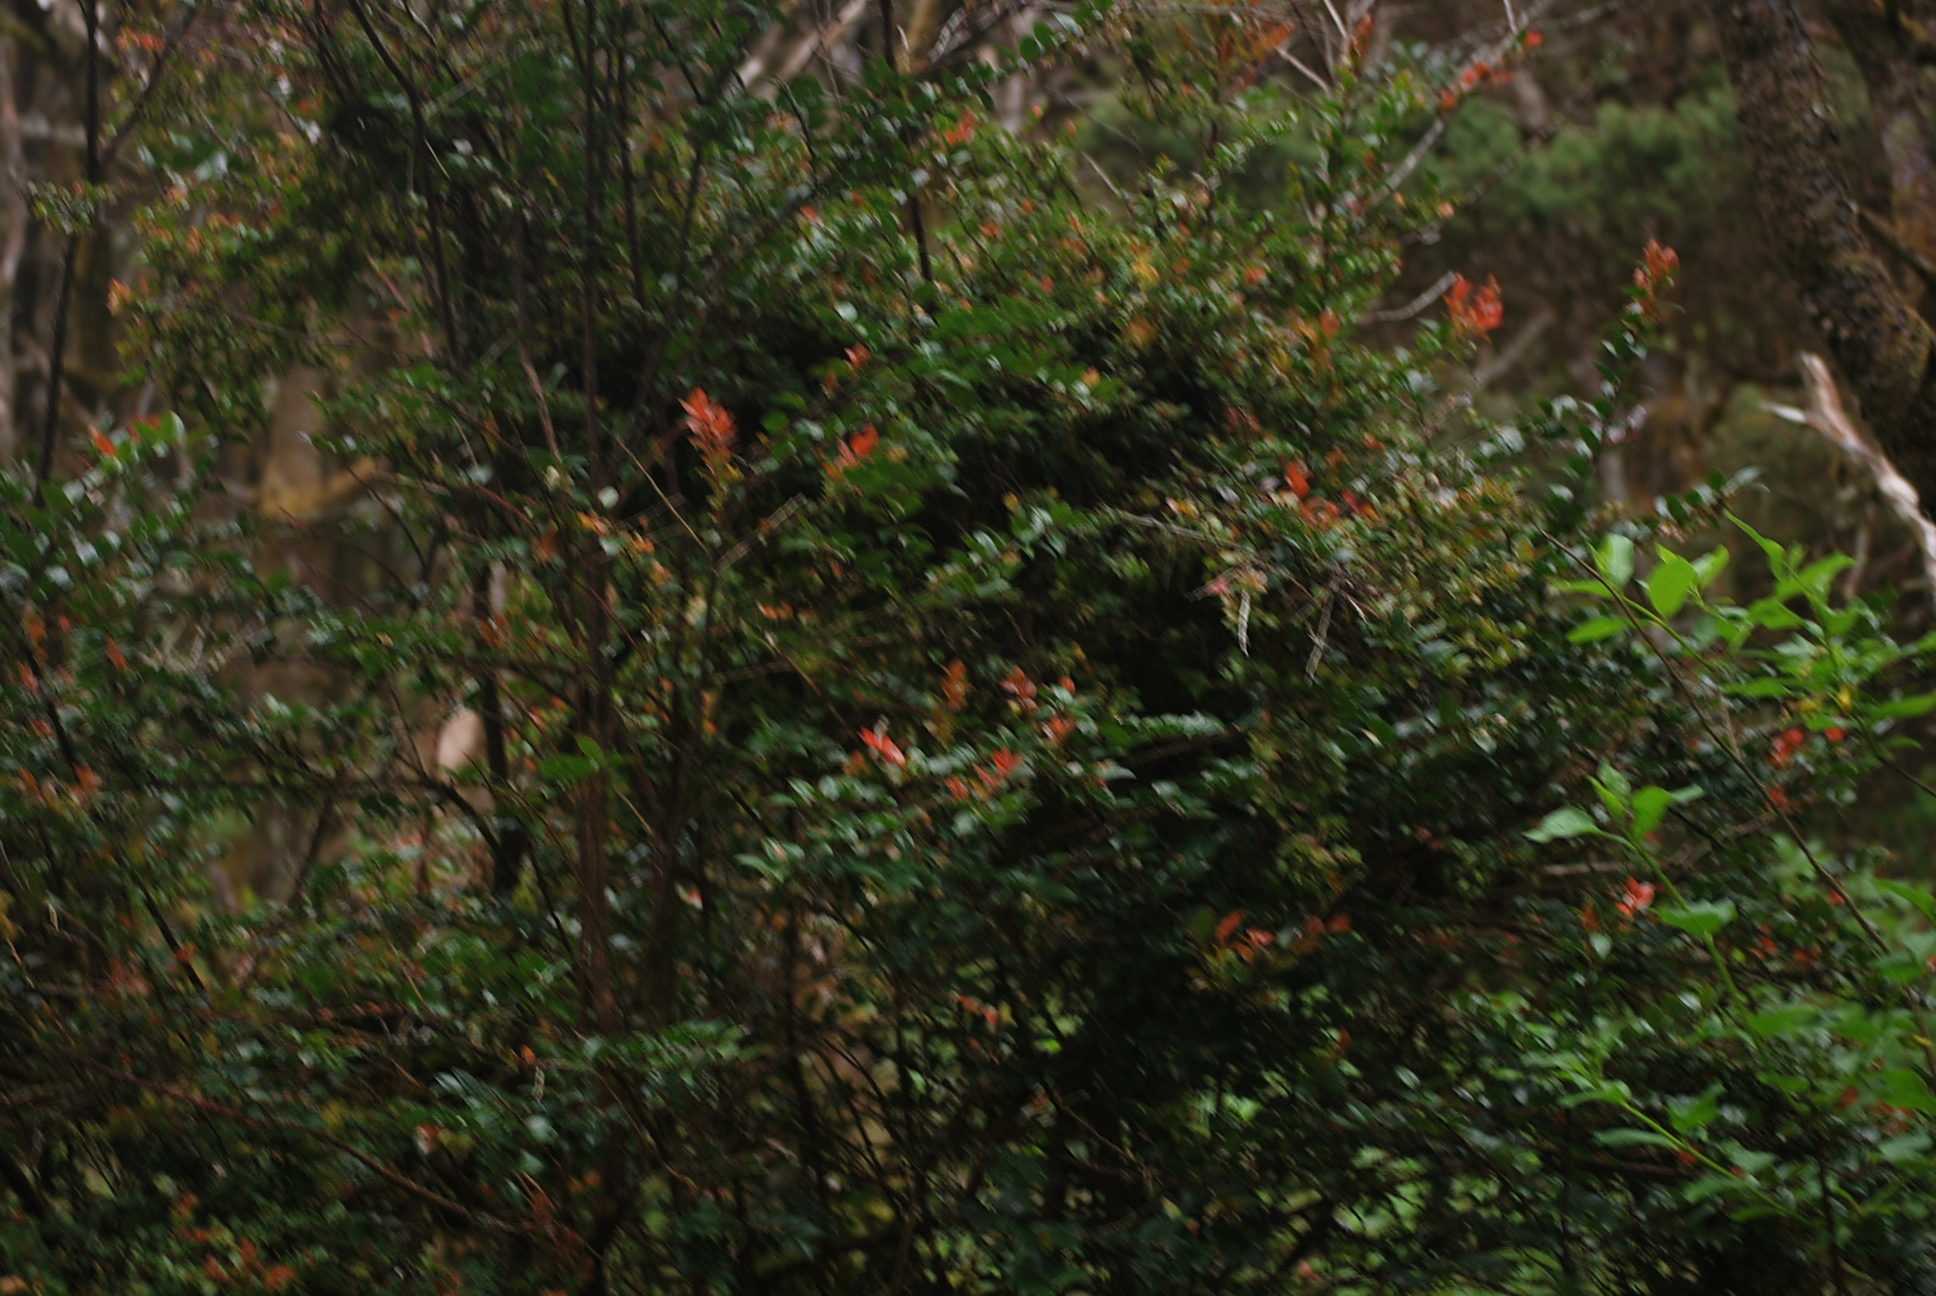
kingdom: Plantae
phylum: Tracheophyta
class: Magnoliopsida
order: Ericales
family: Ericaceae
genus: Vaccinium
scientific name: Vaccinium ovatum
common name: California-huckleberry
